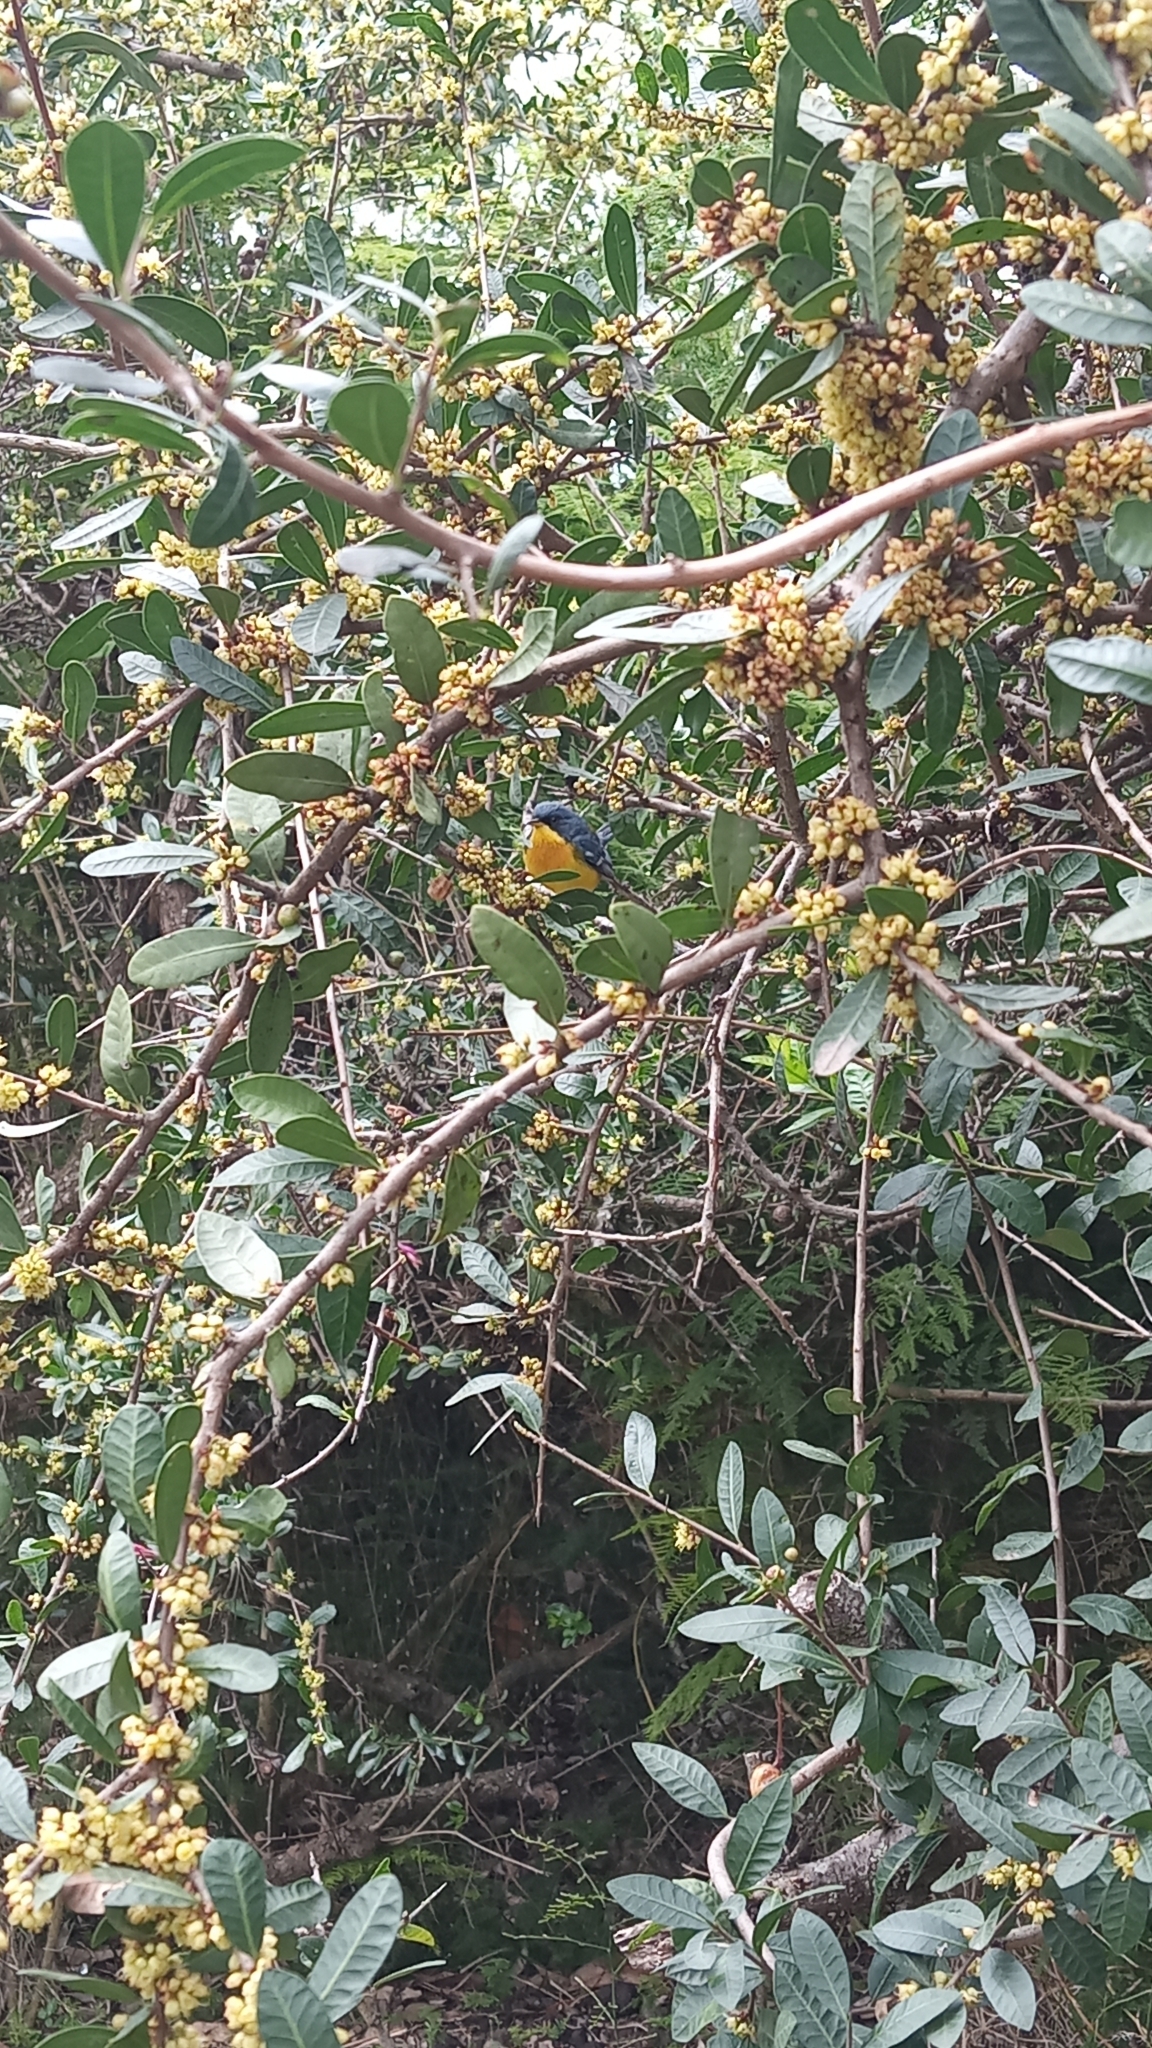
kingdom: Animalia
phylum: Chordata
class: Aves
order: Passeriformes
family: Parulidae
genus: Setophaga
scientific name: Setophaga pitiayumi
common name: Tropical parula
